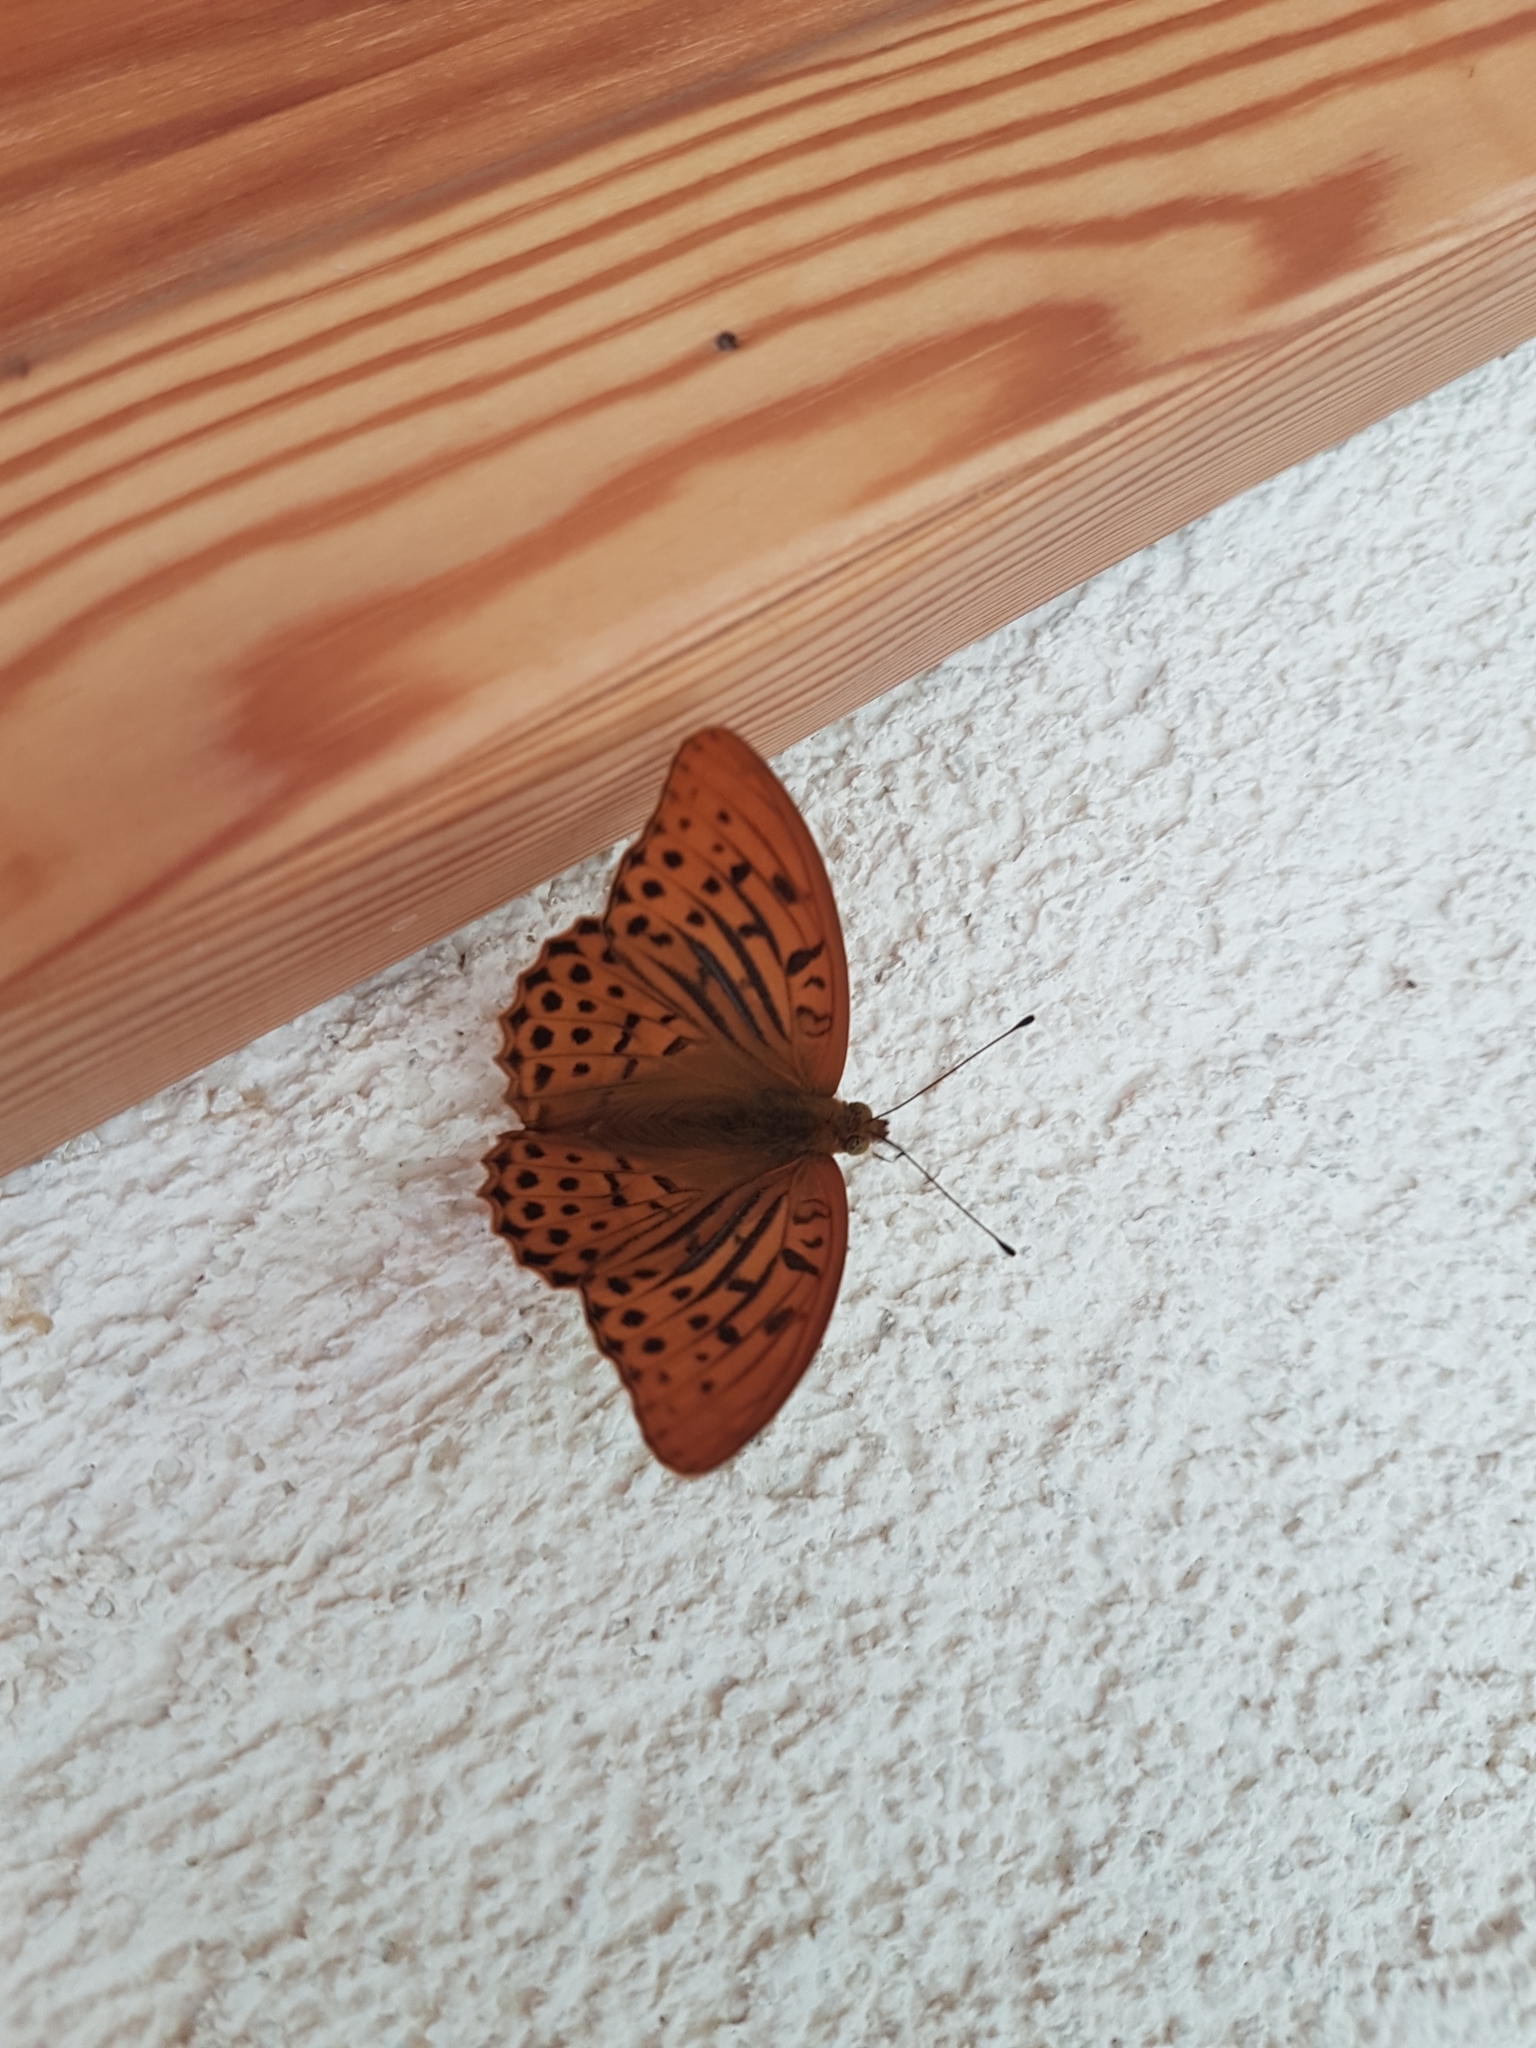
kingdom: Animalia
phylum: Arthropoda
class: Insecta
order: Lepidoptera
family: Nymphalidae
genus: Argynnis
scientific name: Argynnis paphia
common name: Silver-washed fritillary
